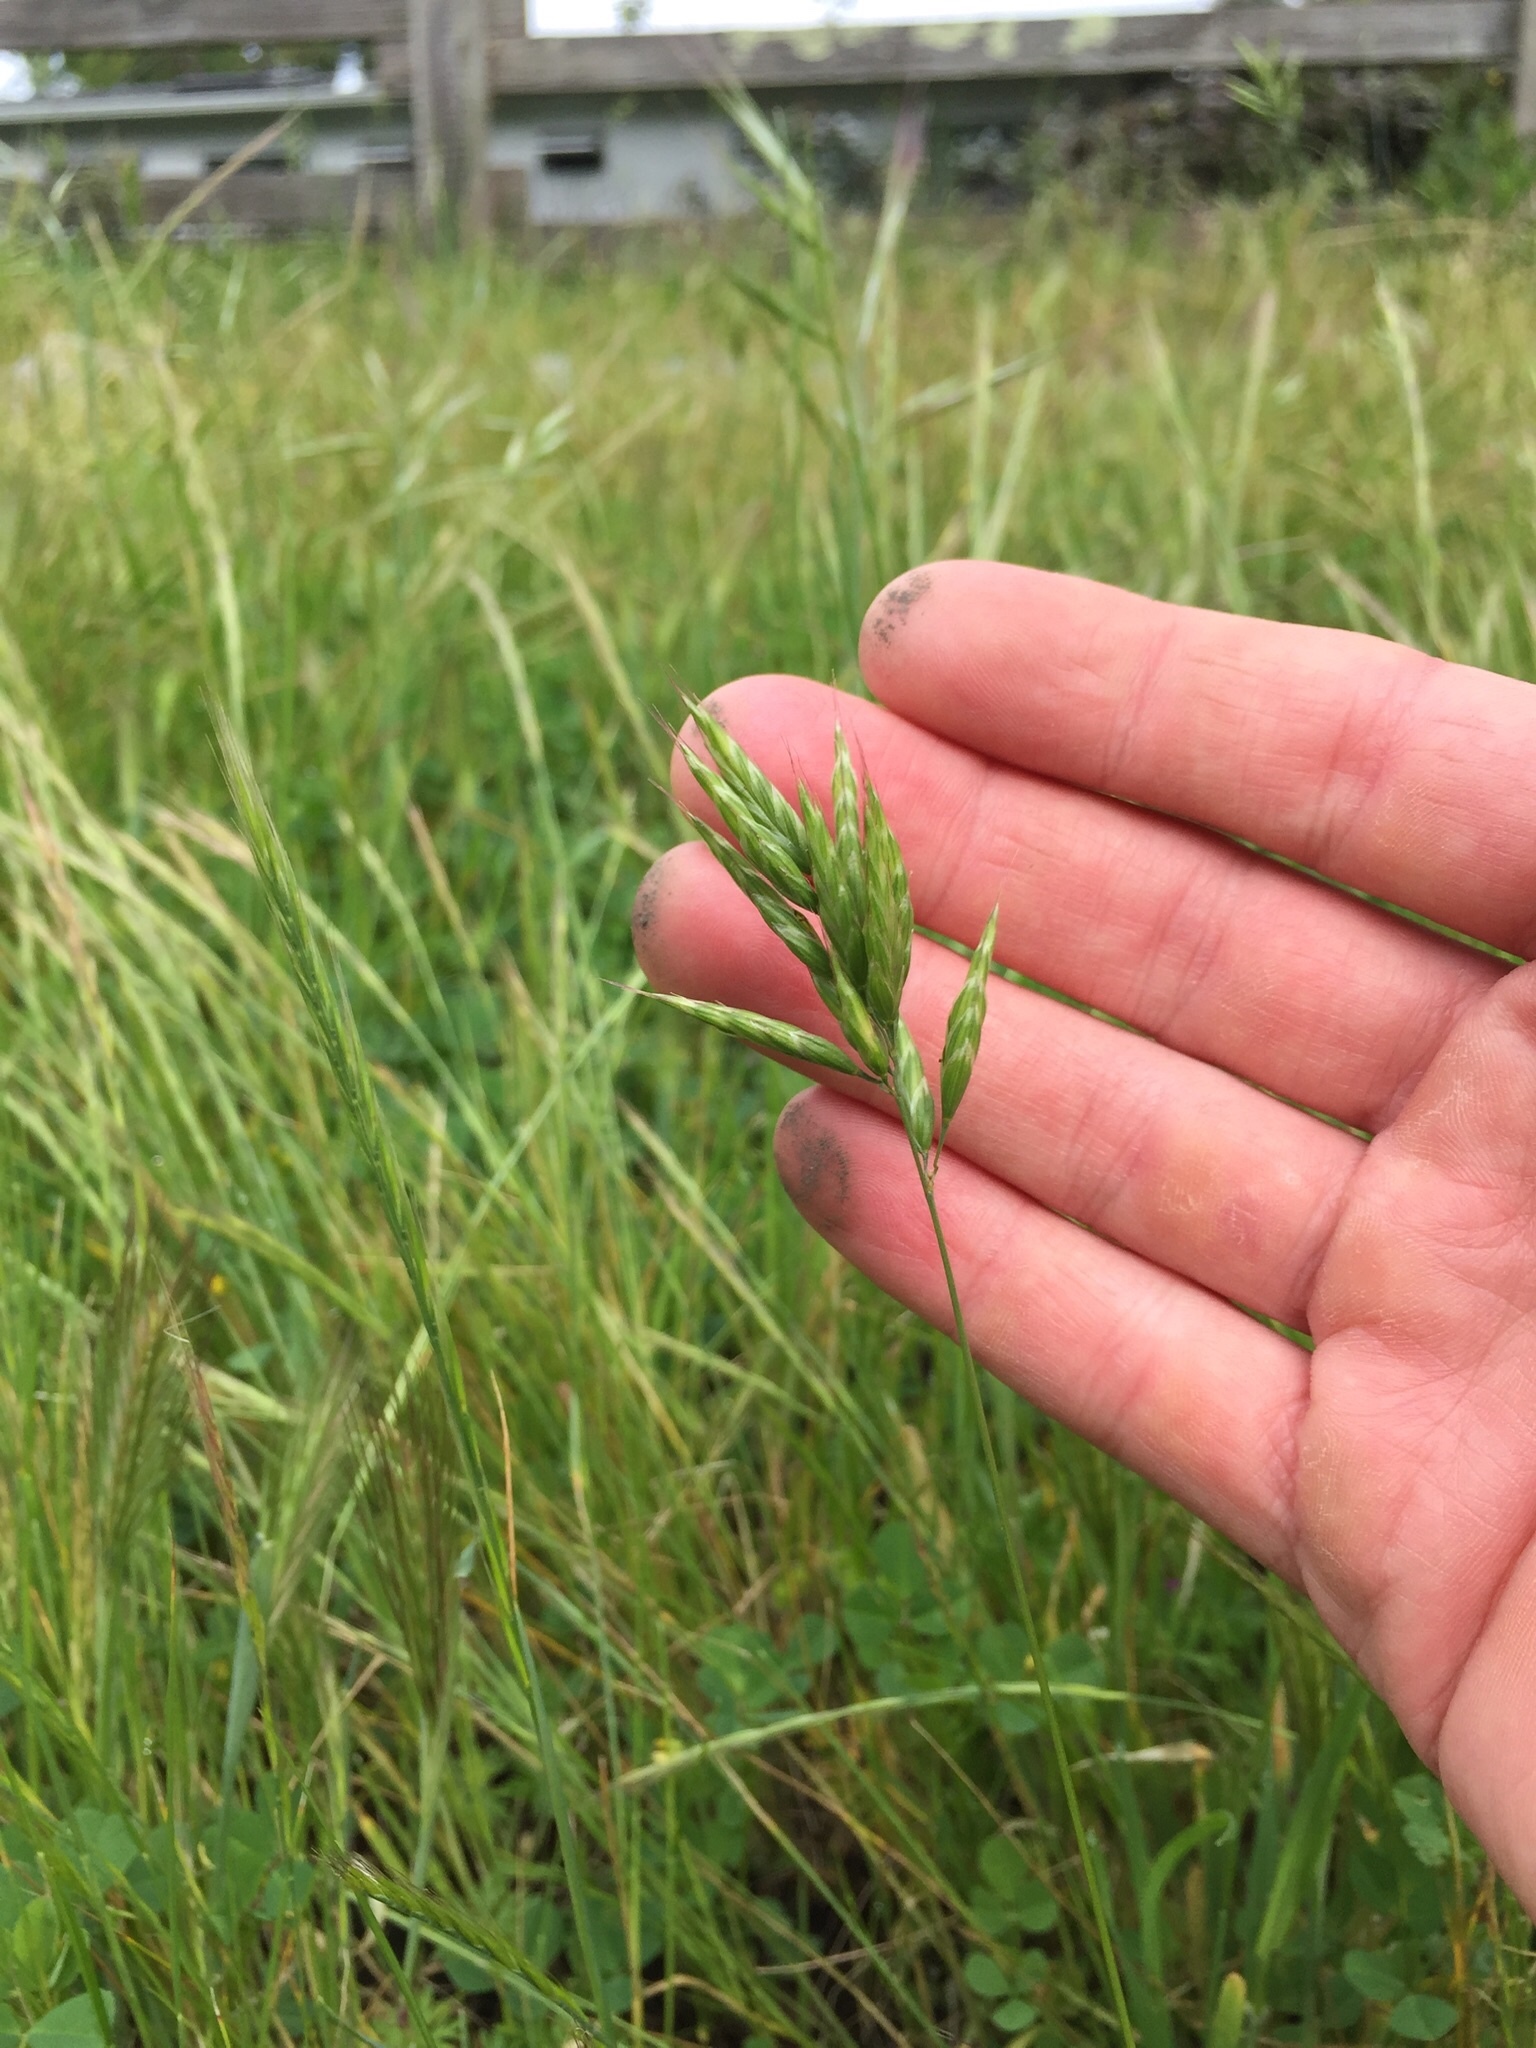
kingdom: Plantae
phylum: Tracheophyta
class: Liliopsida
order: Poales
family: Poaceae
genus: Bromus
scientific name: Bromus hordeaceus
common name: Soft brome
